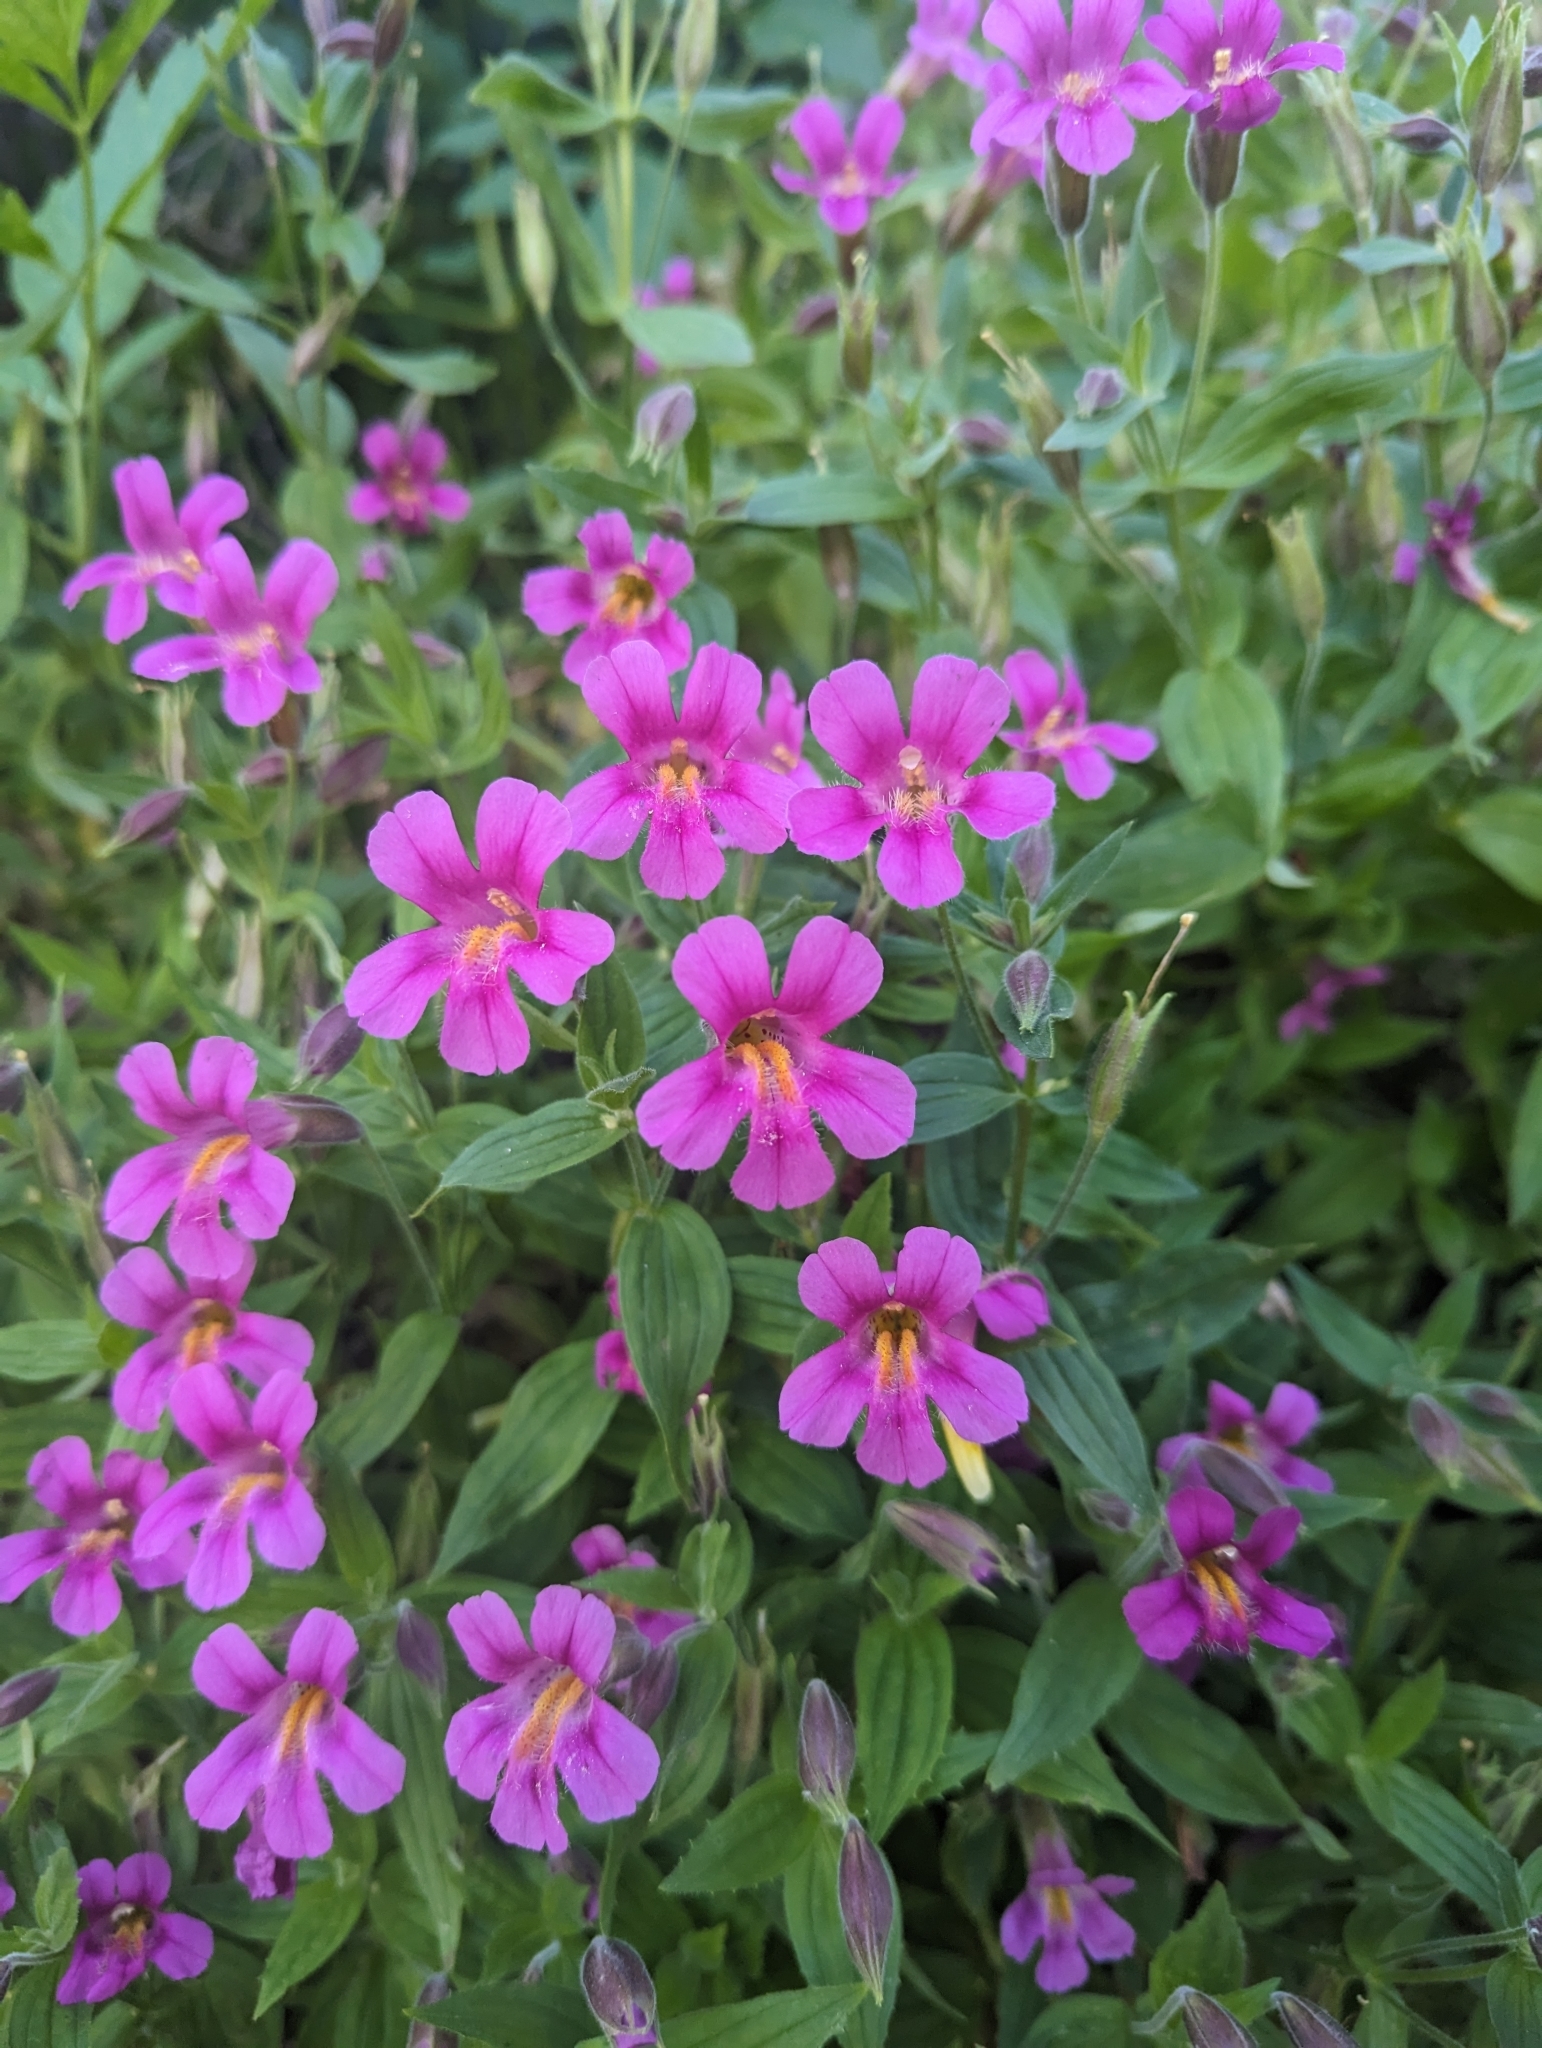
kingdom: Plantae
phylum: Tracheophyta
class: Magnoliopsida
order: Lamiales
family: Phrymaceae
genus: Erythranthe
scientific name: Erythranthe lewisii
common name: Lewis's monkey-flower
